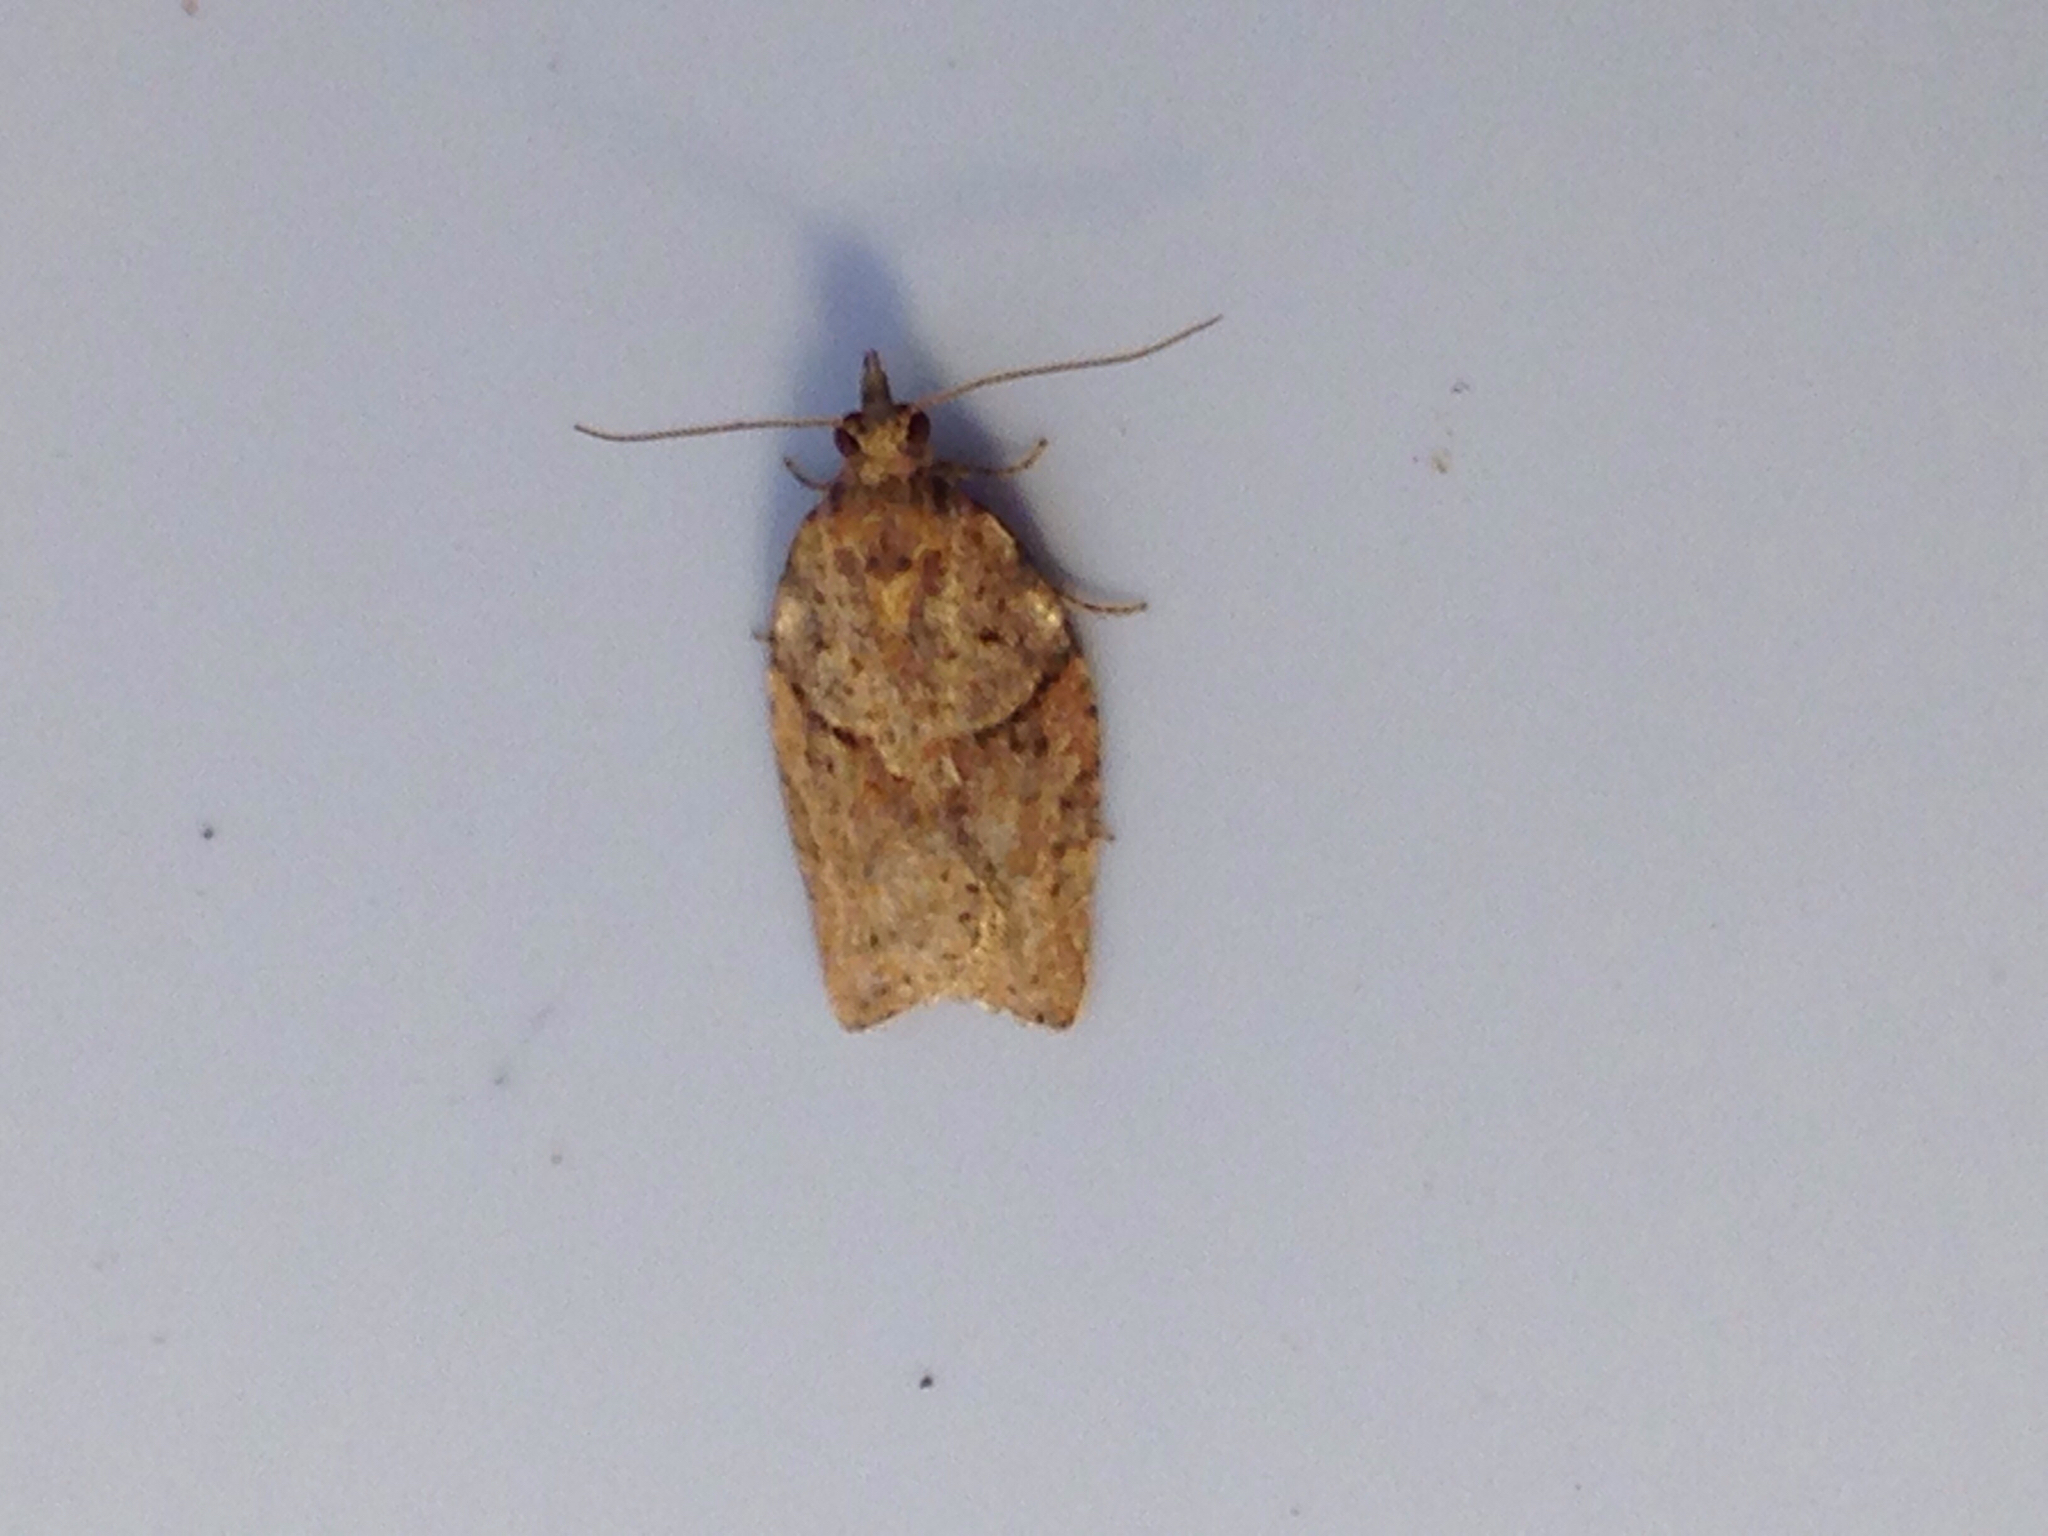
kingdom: Animalia
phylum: Arthropoda
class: Insecta
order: Lepidoptera
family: Tortricidae
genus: Epiphyas
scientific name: Epiphyas postvittana
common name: Light brown apple moth
